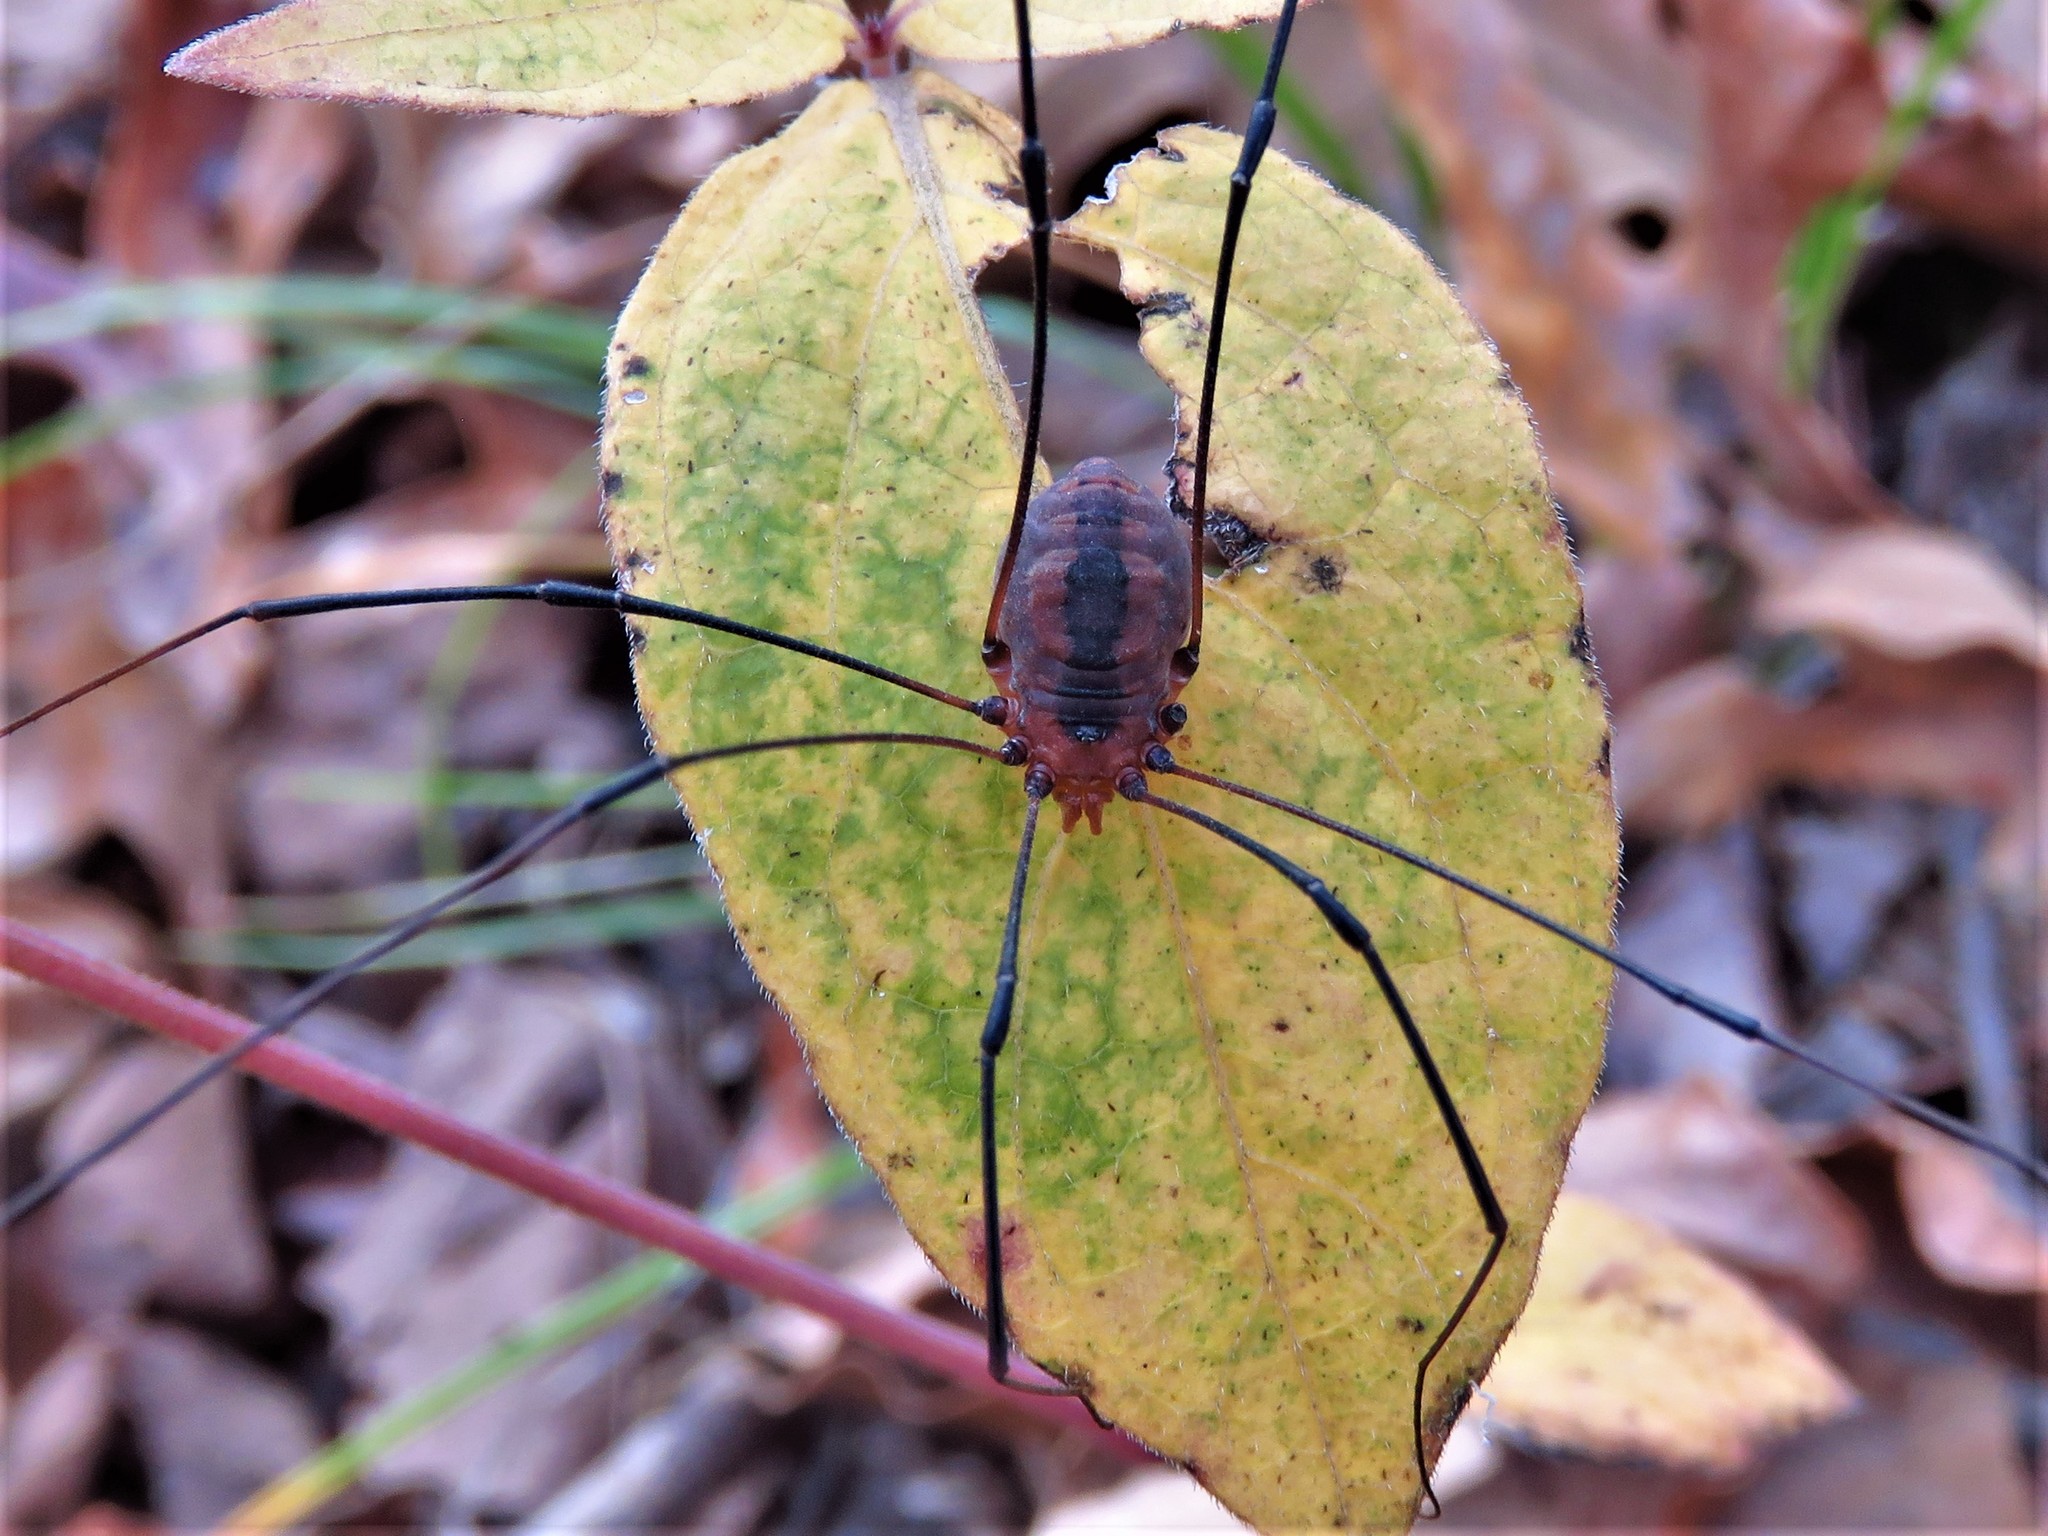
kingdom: Animalia
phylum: Arthropoda
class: Arachnida
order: Opiliones
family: Sclerosomatidae
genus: Leiobunum
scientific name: Leiobunum vittatum
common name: Eastern harvestman
